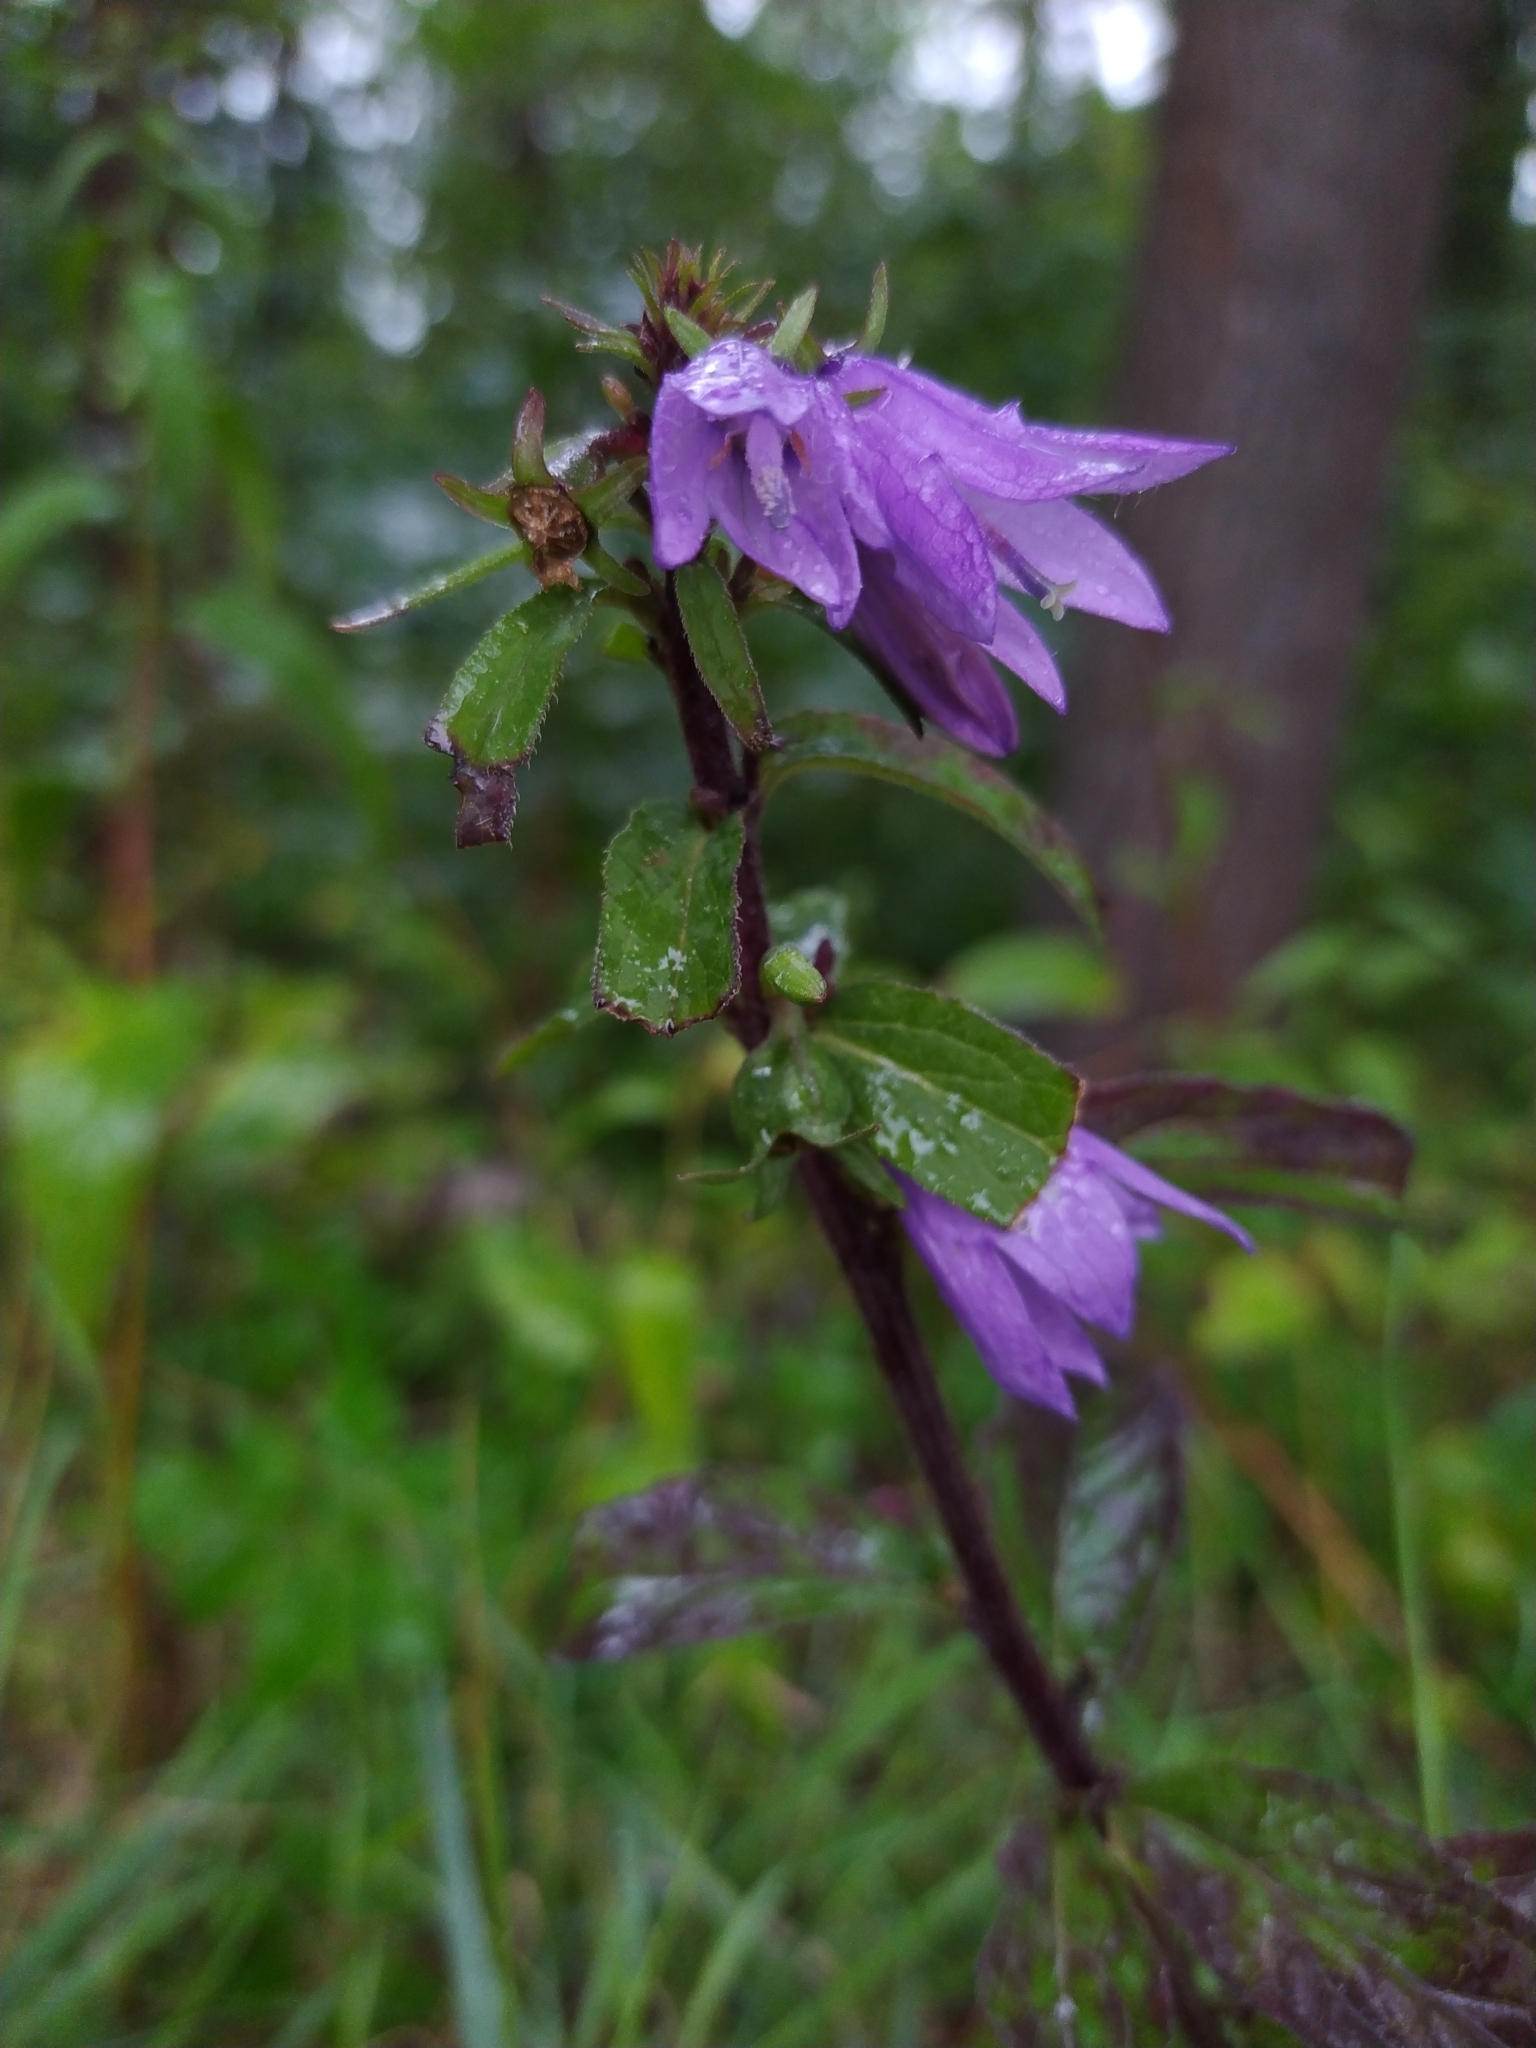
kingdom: Plantae
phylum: Tracheophyta
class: Magnoliopsida
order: Asterales
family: Campanulaceae
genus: Campanula
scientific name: Campanula rapunculoides
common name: Creeping bellflower
